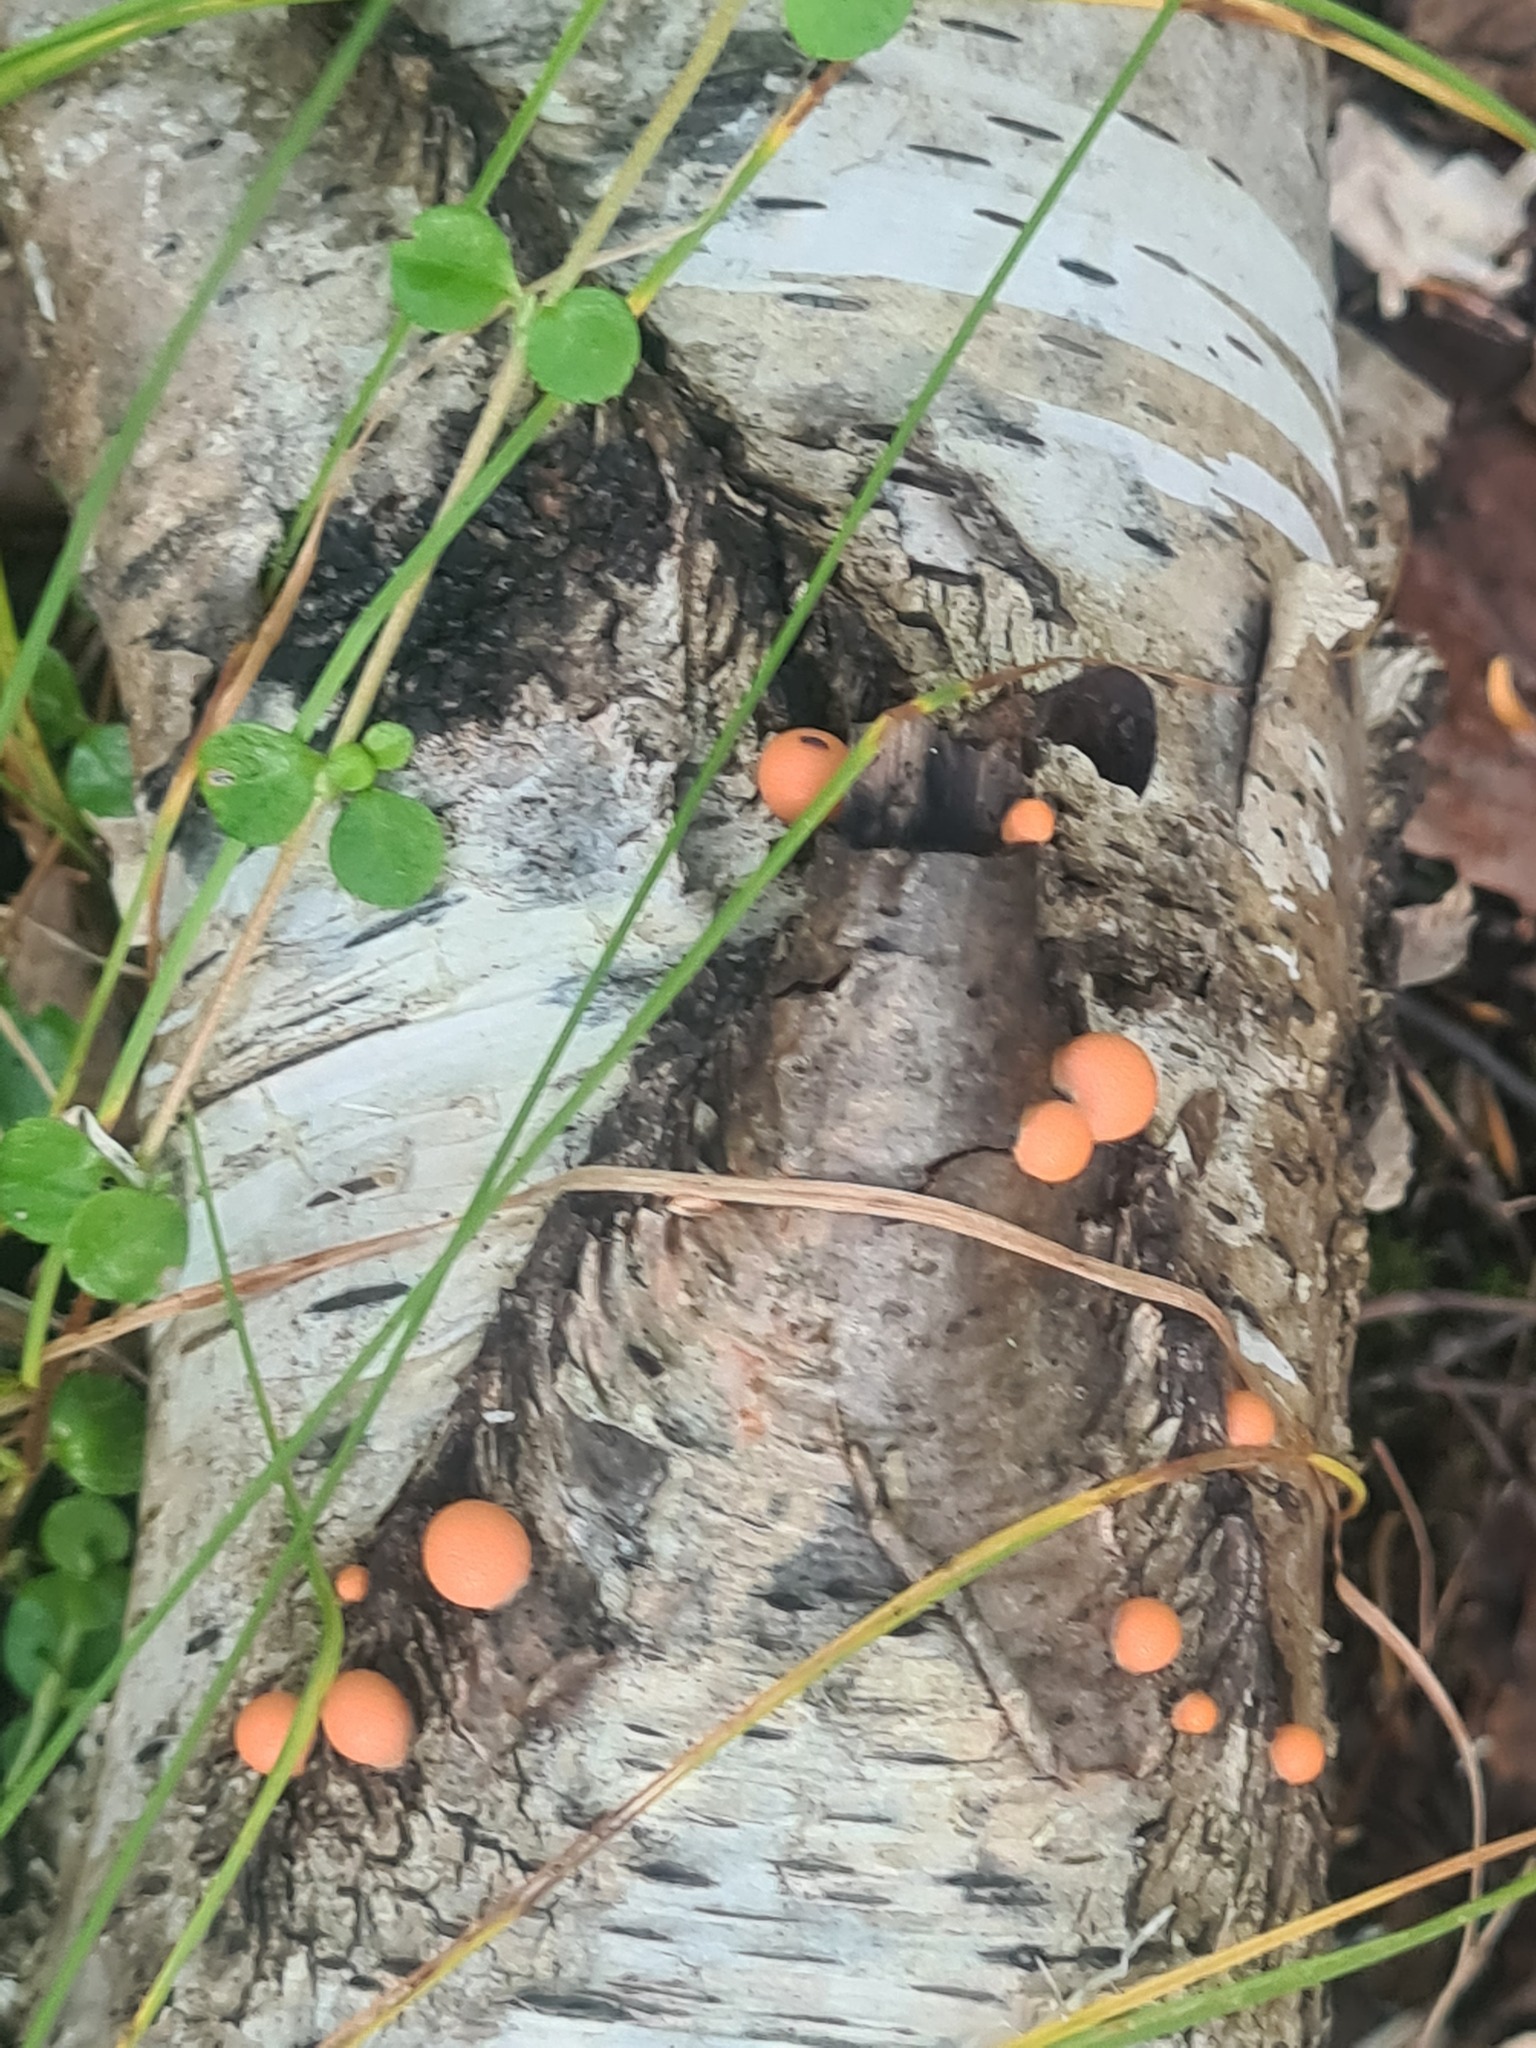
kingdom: Protozoa
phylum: Mycetozoa
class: Myxomycetes
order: Cribrariales
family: Tubiferaceae
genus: Lycogala
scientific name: Lycogala epidendrum
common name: Wolf's milk
